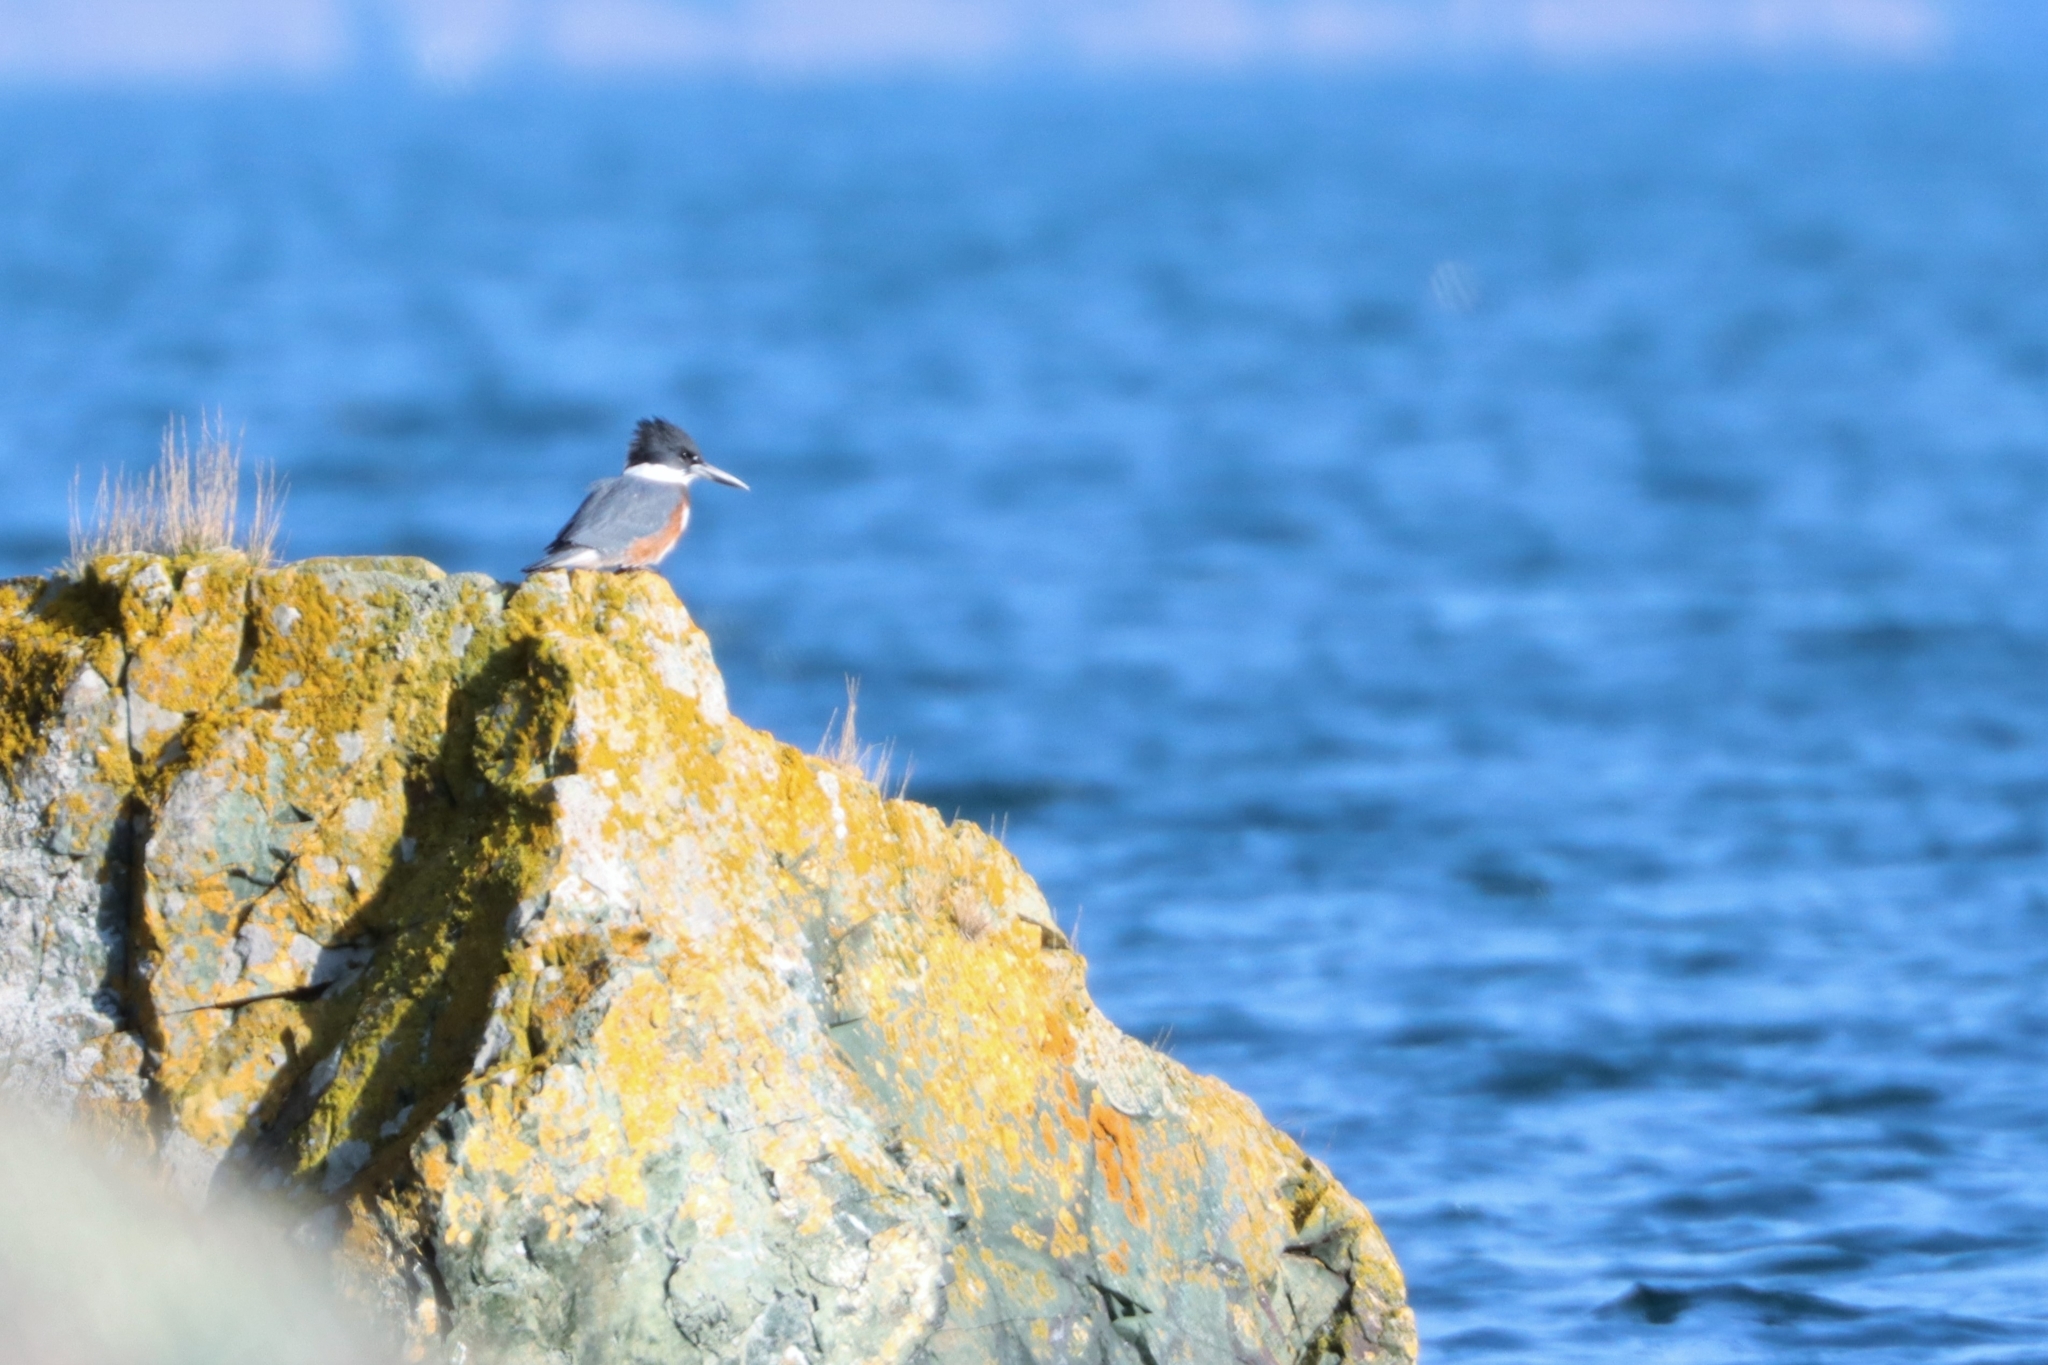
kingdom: Animalia
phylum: Chordata
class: Aves
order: Coraciiformes
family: Alcedinidae
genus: Megaceryle
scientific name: Megaceryle alcyon
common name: Belted kingfisher
